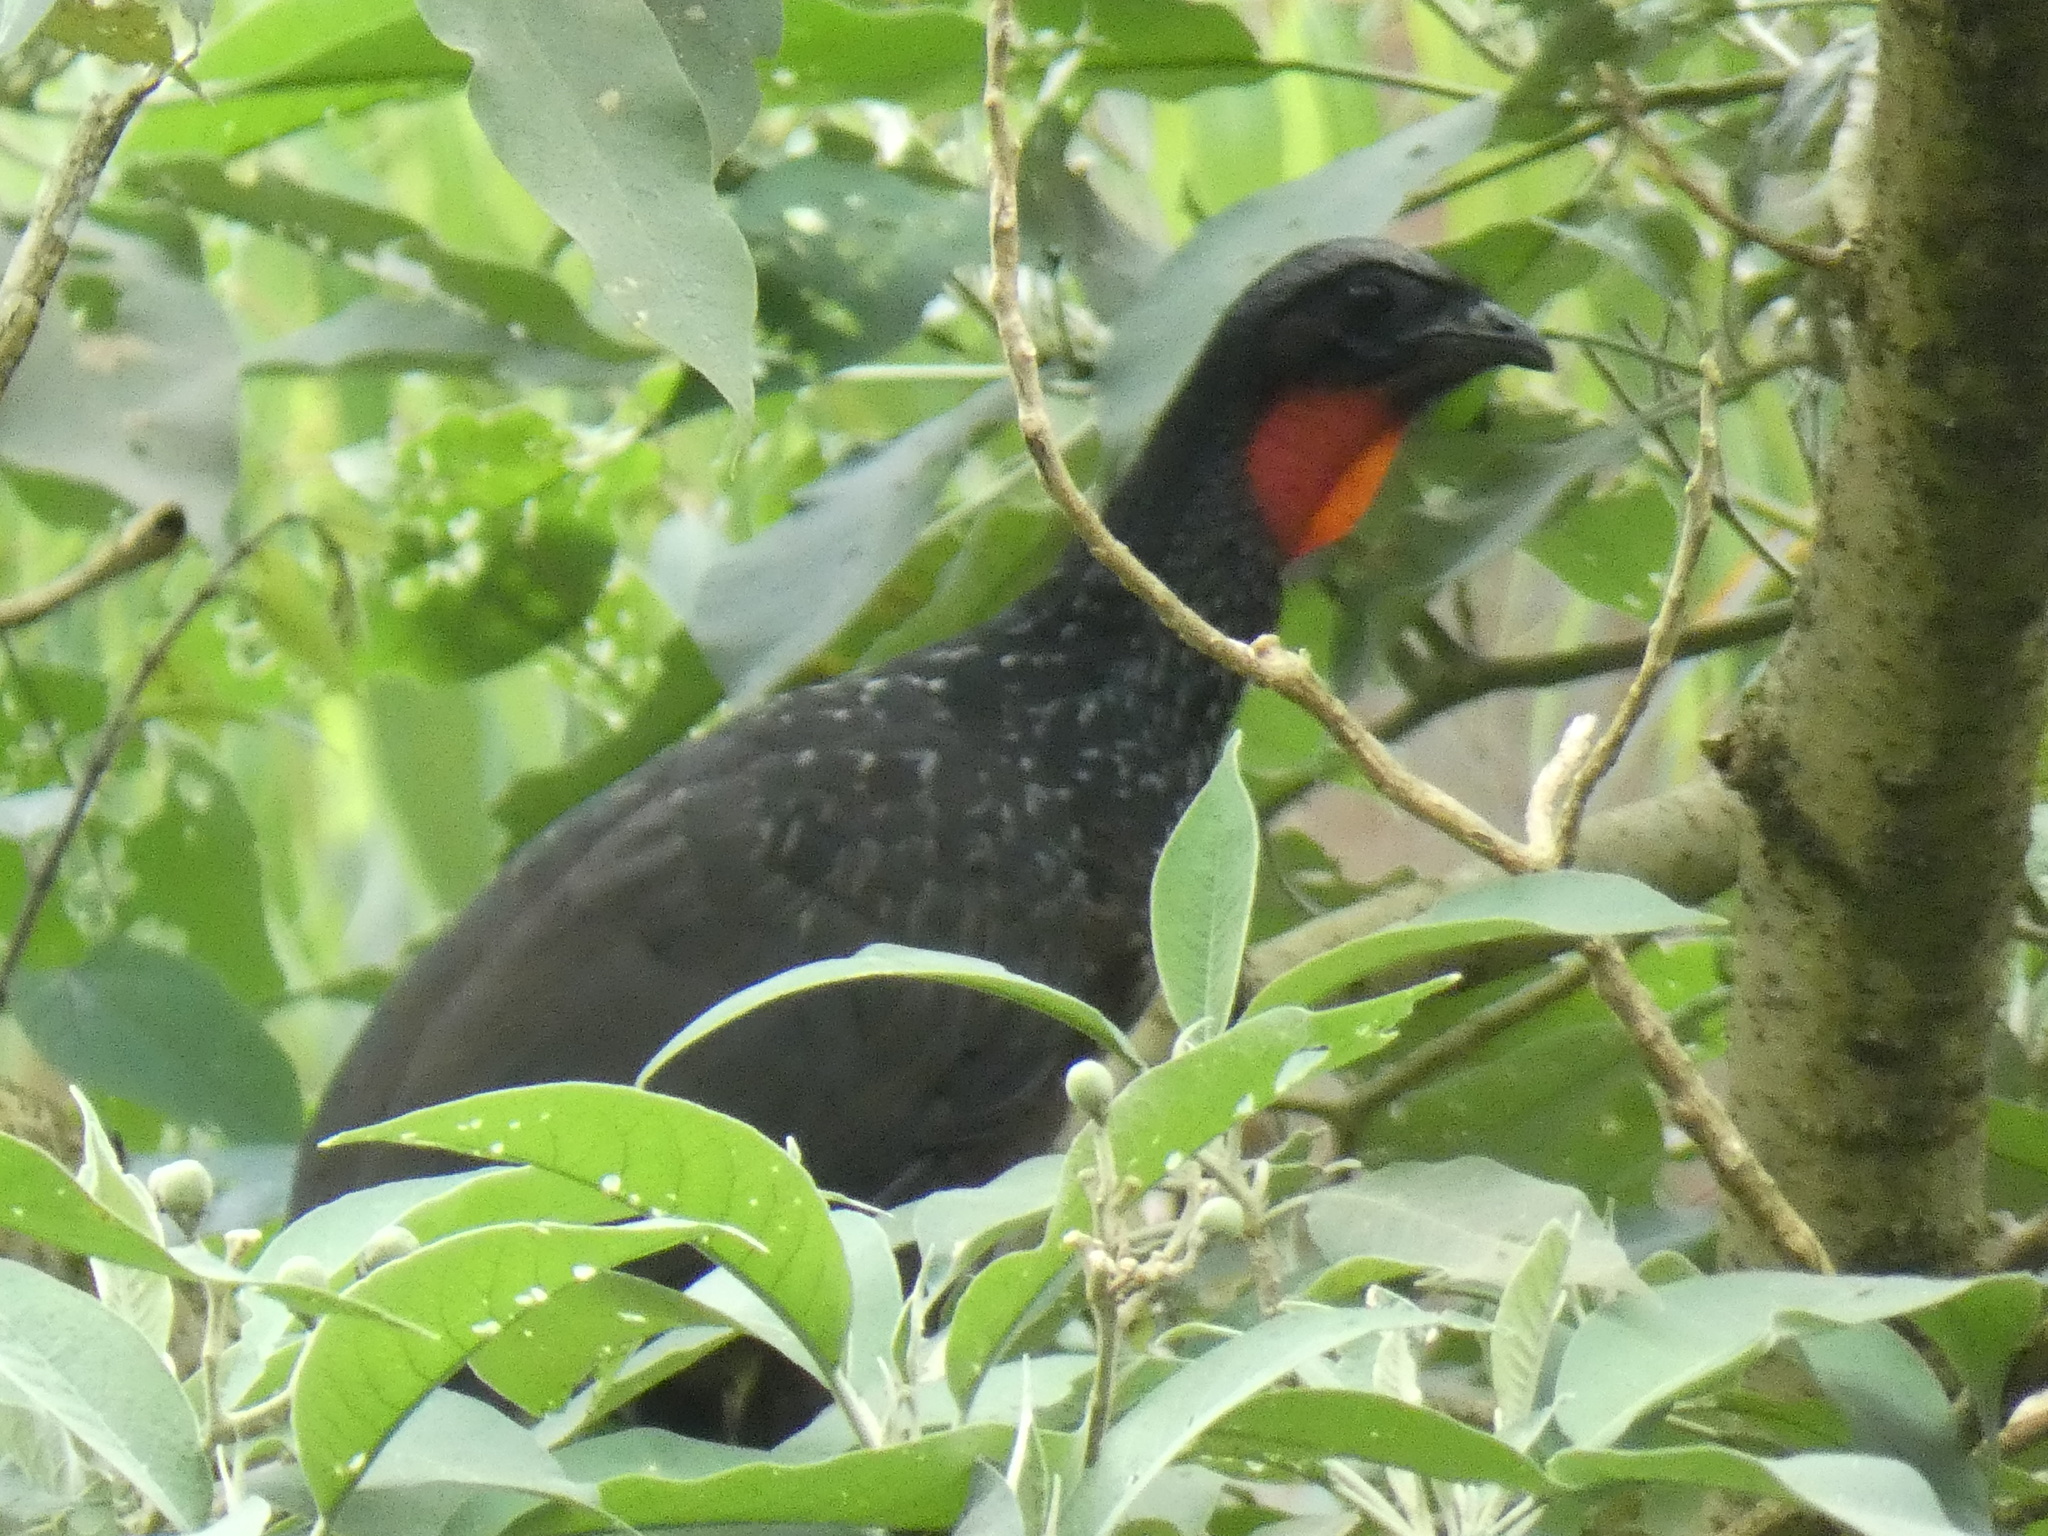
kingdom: Animalia
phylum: Chordata
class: Aves
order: Galliformes
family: Cracidae
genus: Penelope
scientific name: Penelope obscura
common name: Dusky-legged guan
